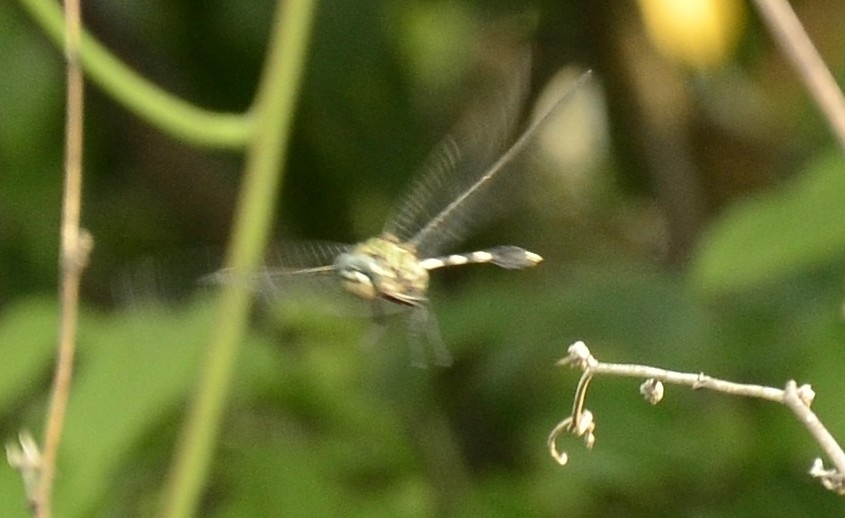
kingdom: Animalia
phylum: Arthropoda
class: Insecta
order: Odonata
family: Libellulidae
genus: Orthetrum
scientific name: Orthetrum sabina
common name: Slender skimmer
